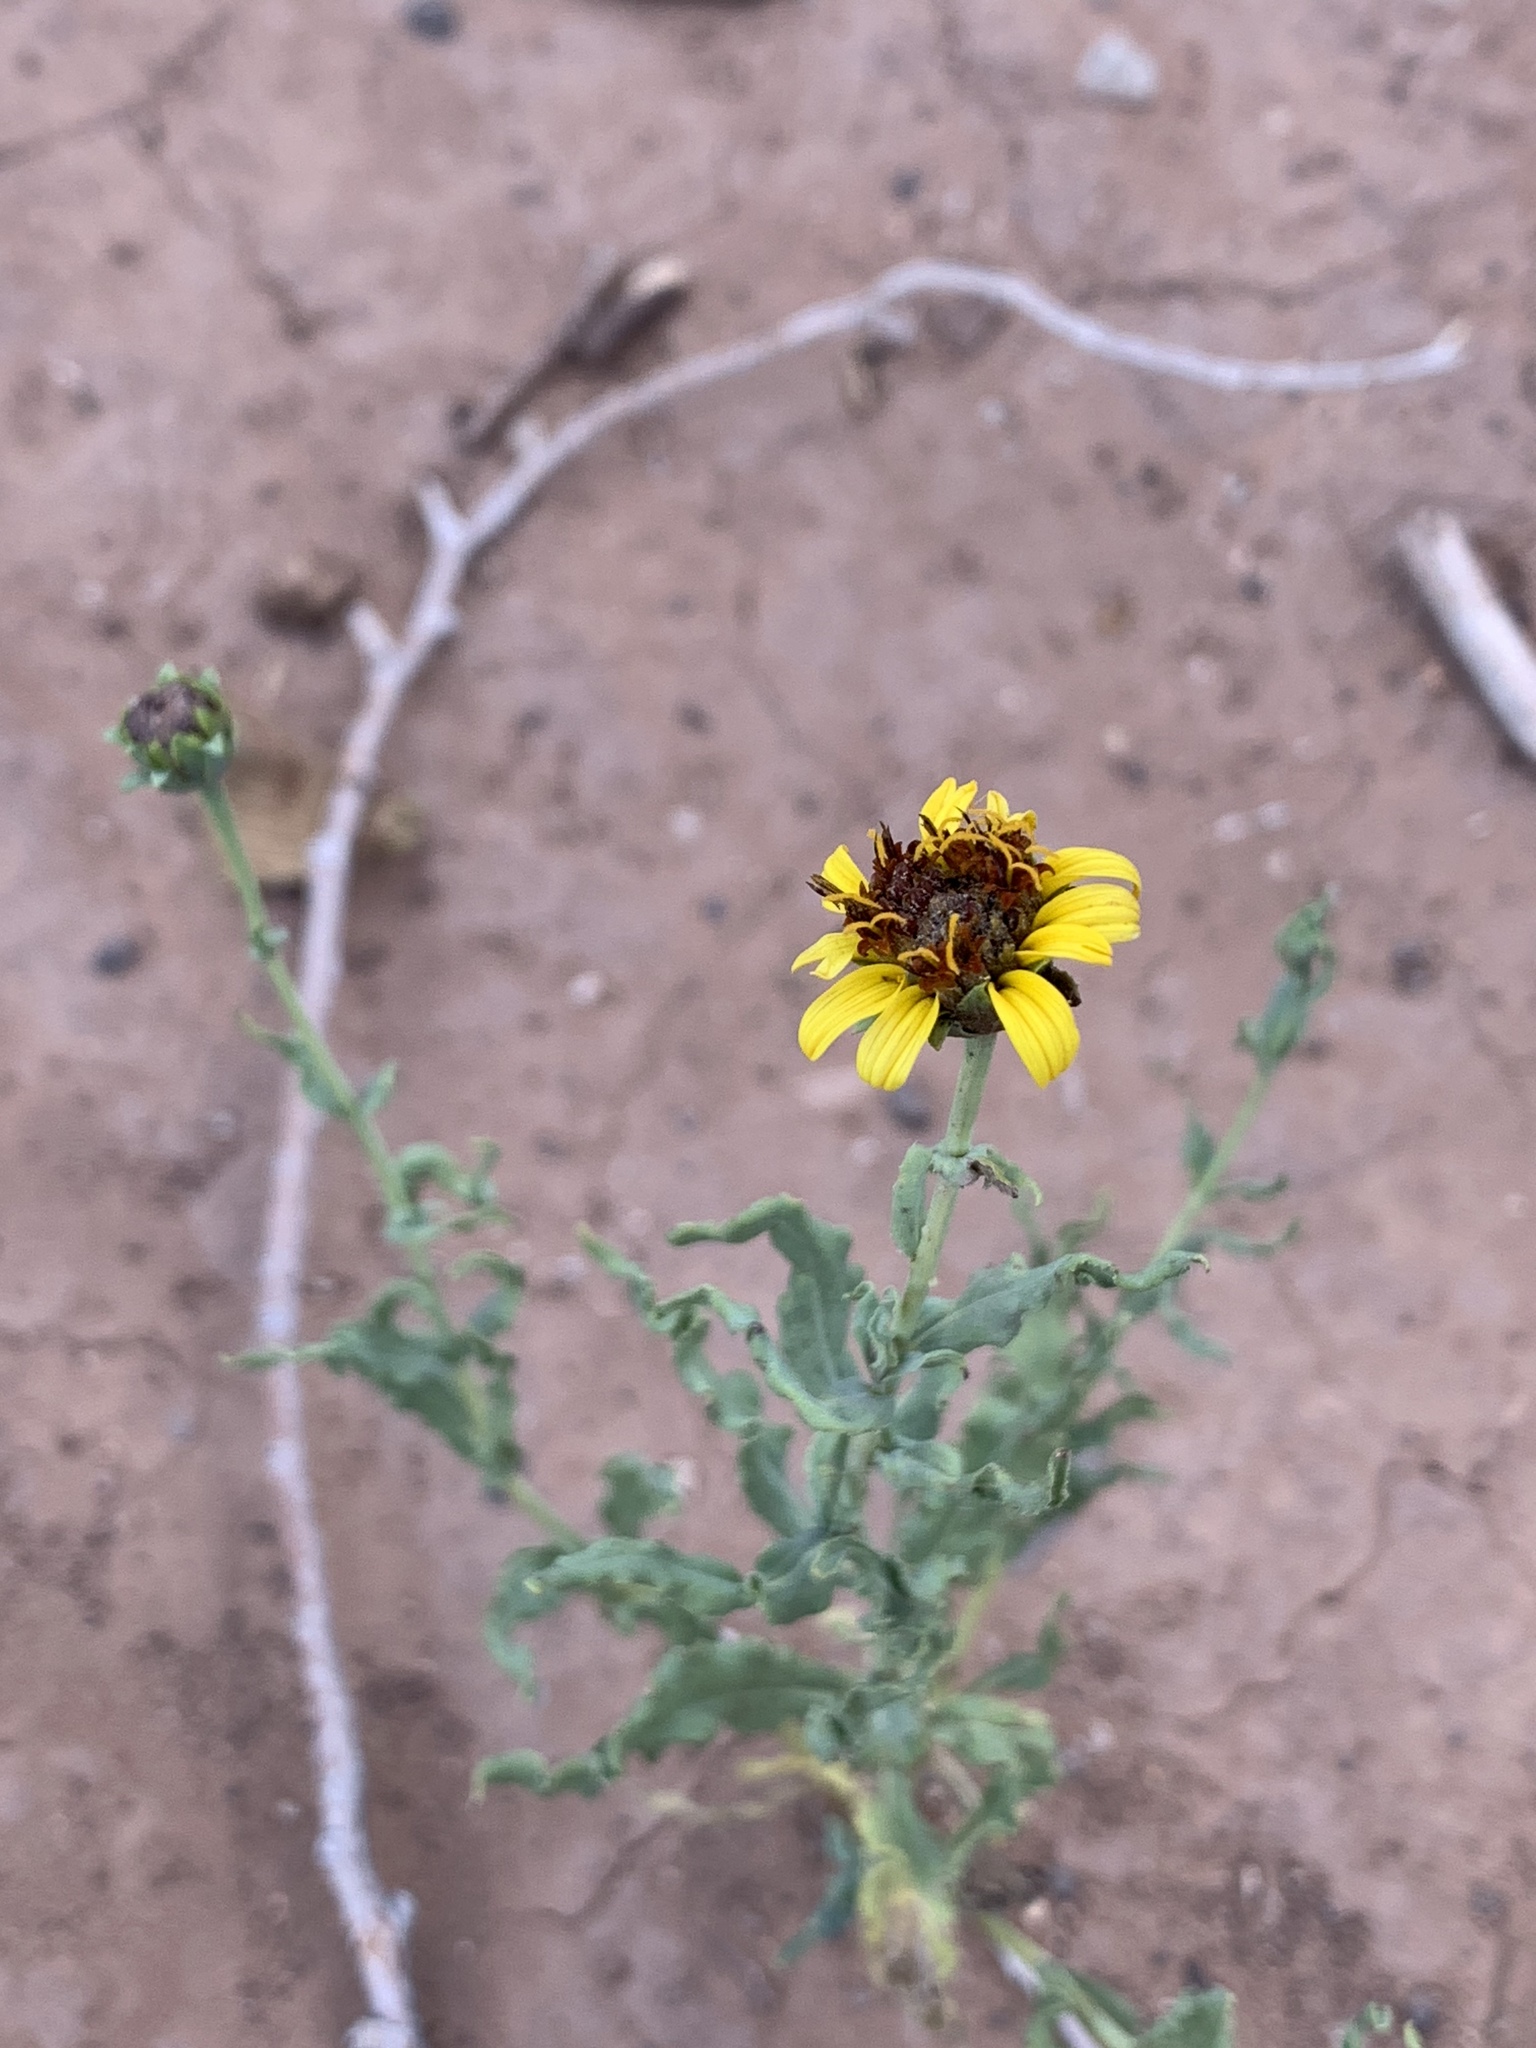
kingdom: Plantae
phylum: Tracheophyta
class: Magnoliopsida
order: Asterales
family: Asteraceae
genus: Helianthus
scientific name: Helianthus ciliaris
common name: Texas blueweed
